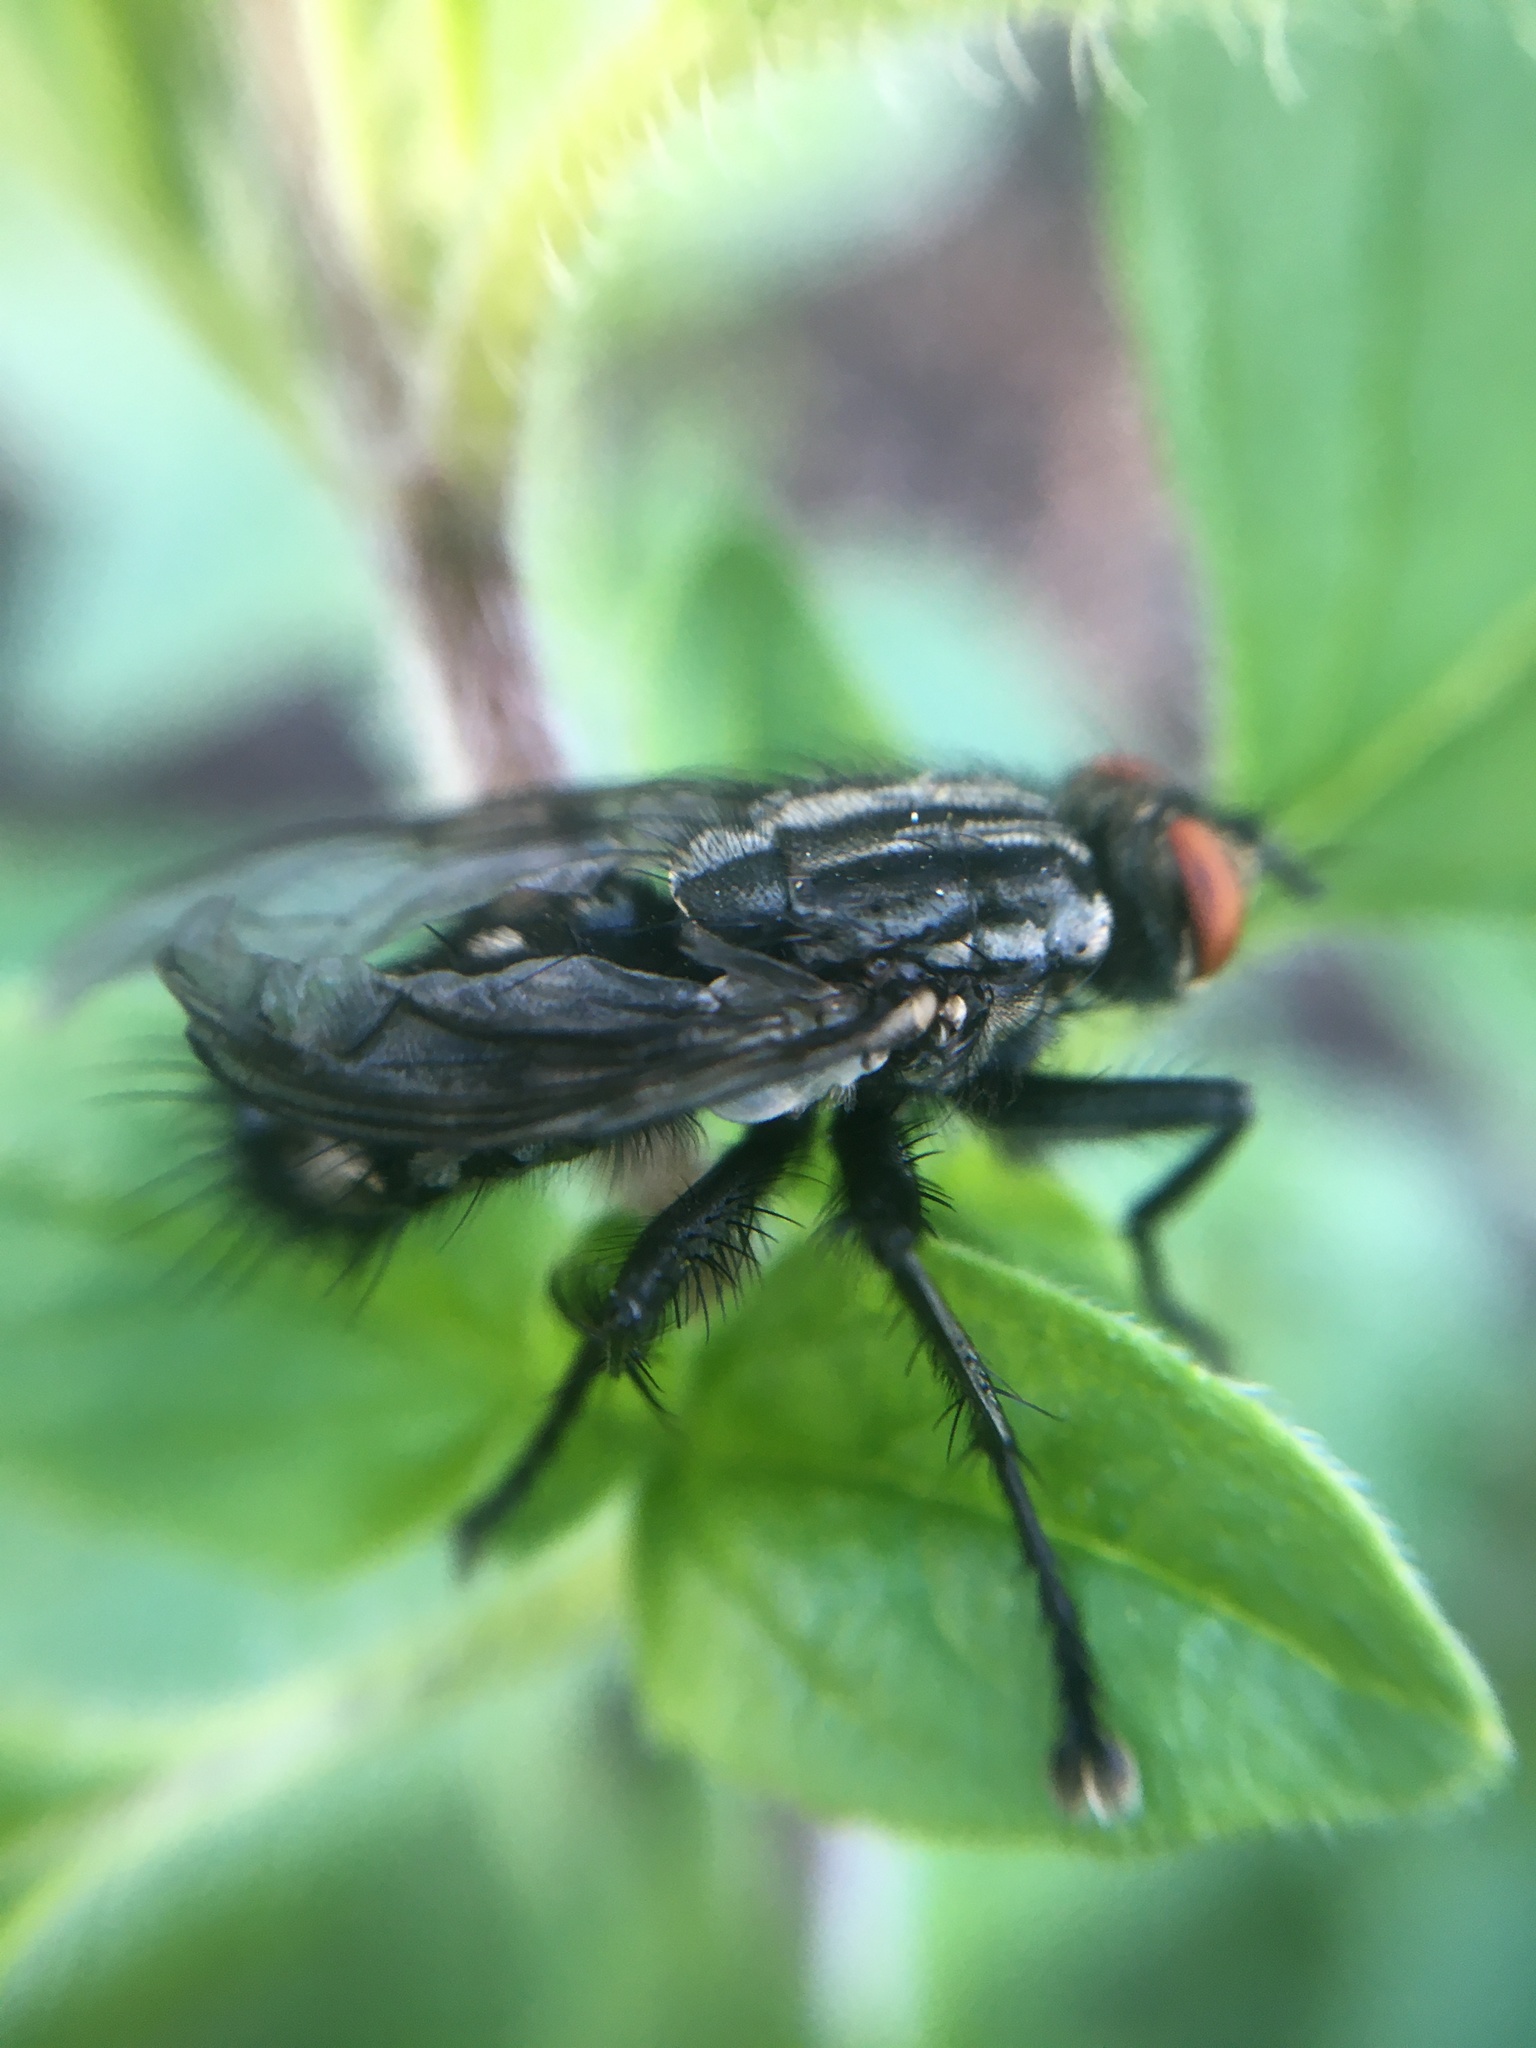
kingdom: Animalia
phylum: Arthropoda
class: Insecta
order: Diptera
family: Sarcophagidae
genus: Sarcophaga
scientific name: Sarcophaga
